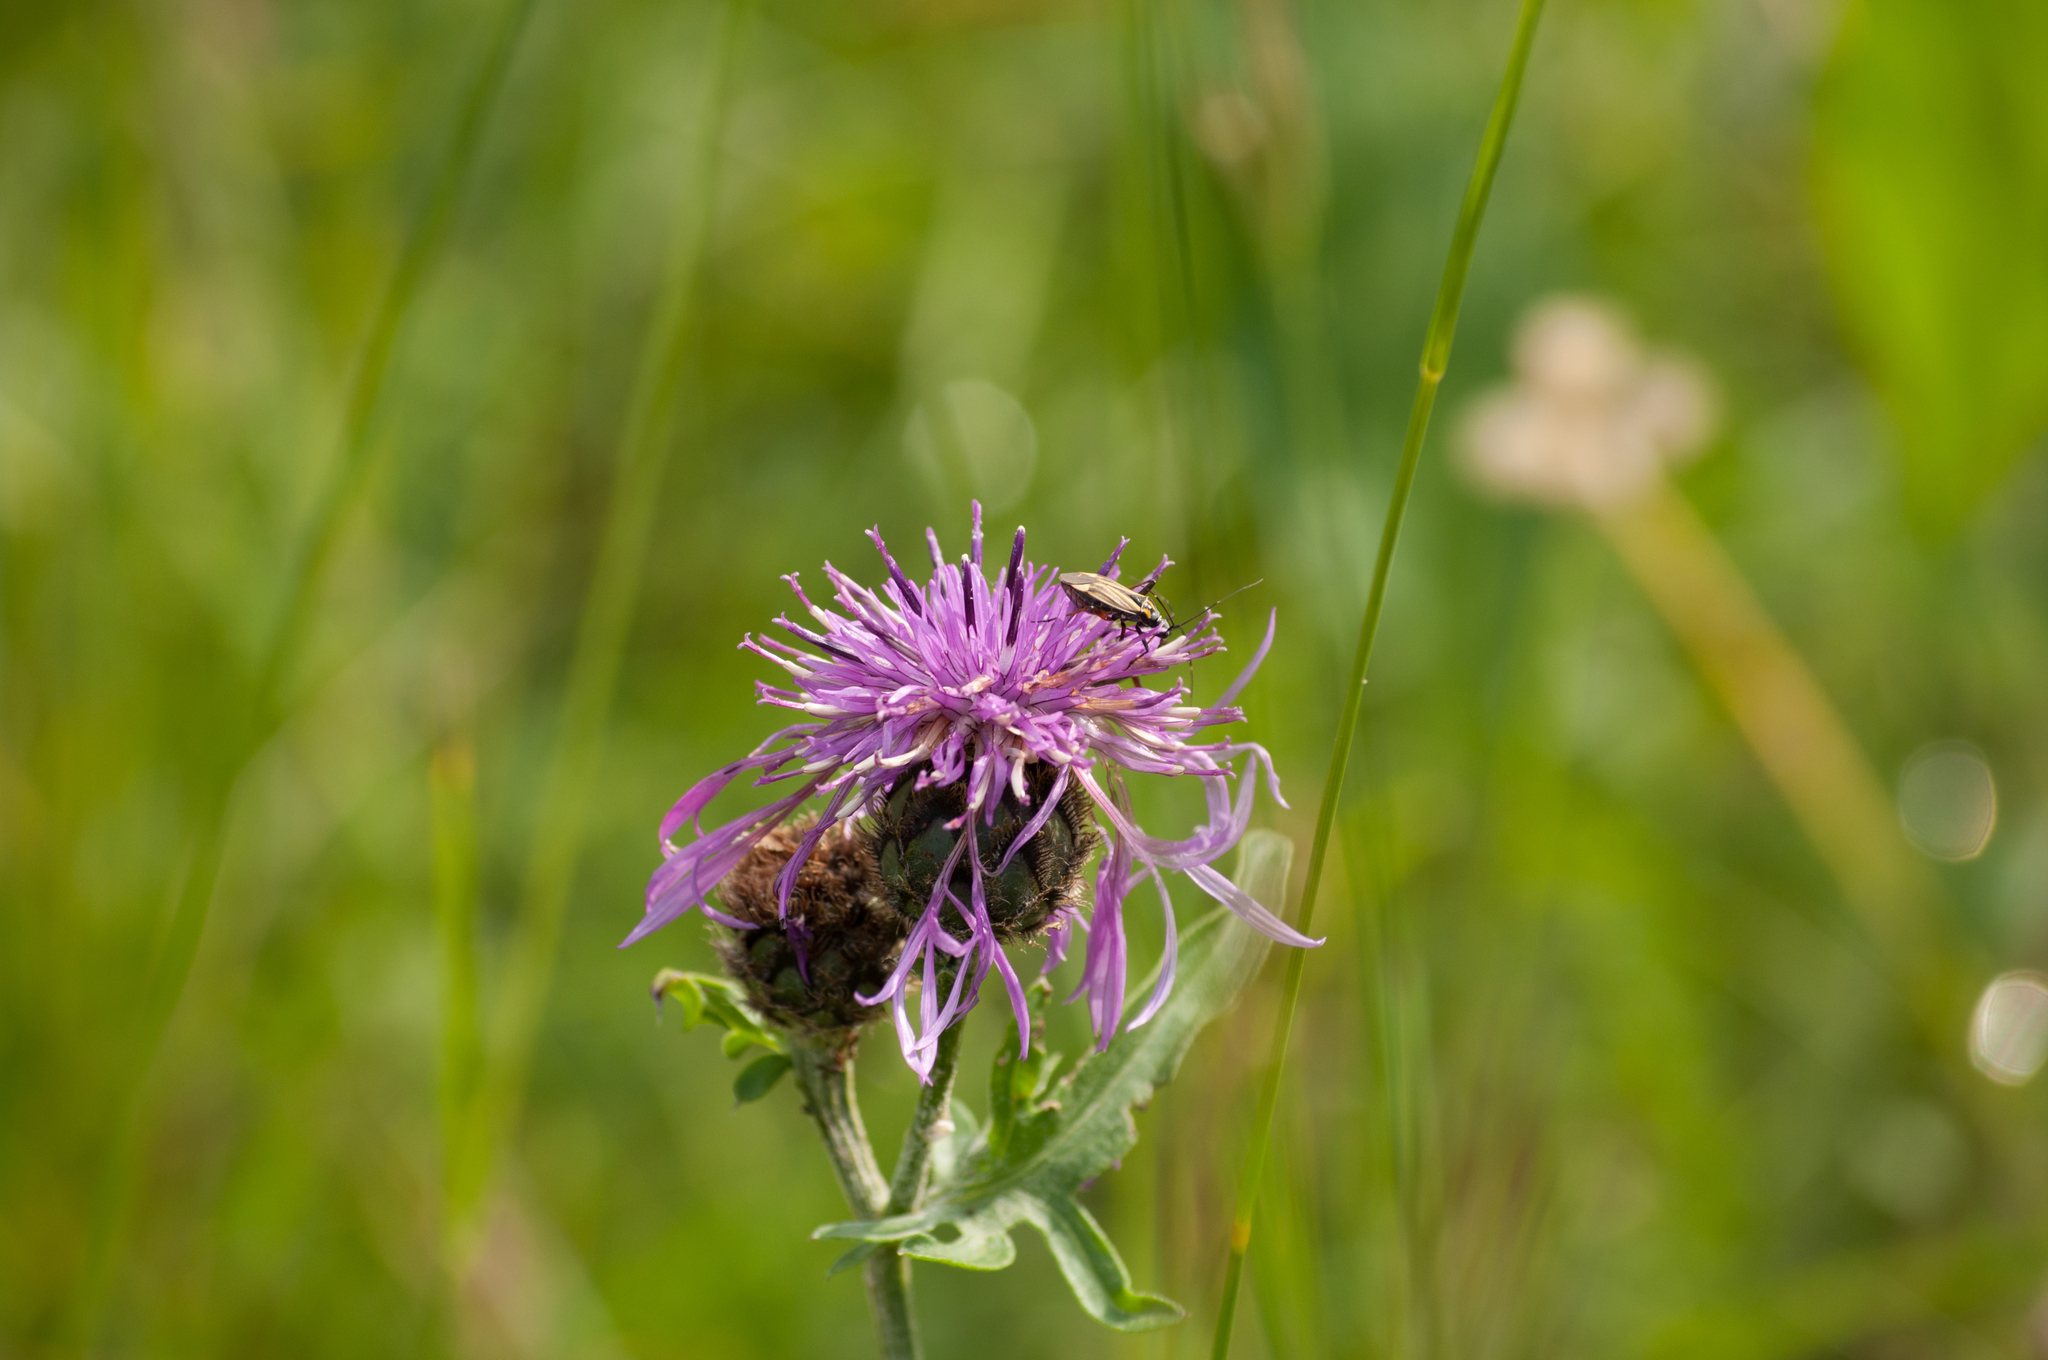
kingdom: Animalia
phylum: Arthropoda
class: Insecta
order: Hemiptera
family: Miridae
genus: Hadrodemus
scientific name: Hadrodemus m-flavum
